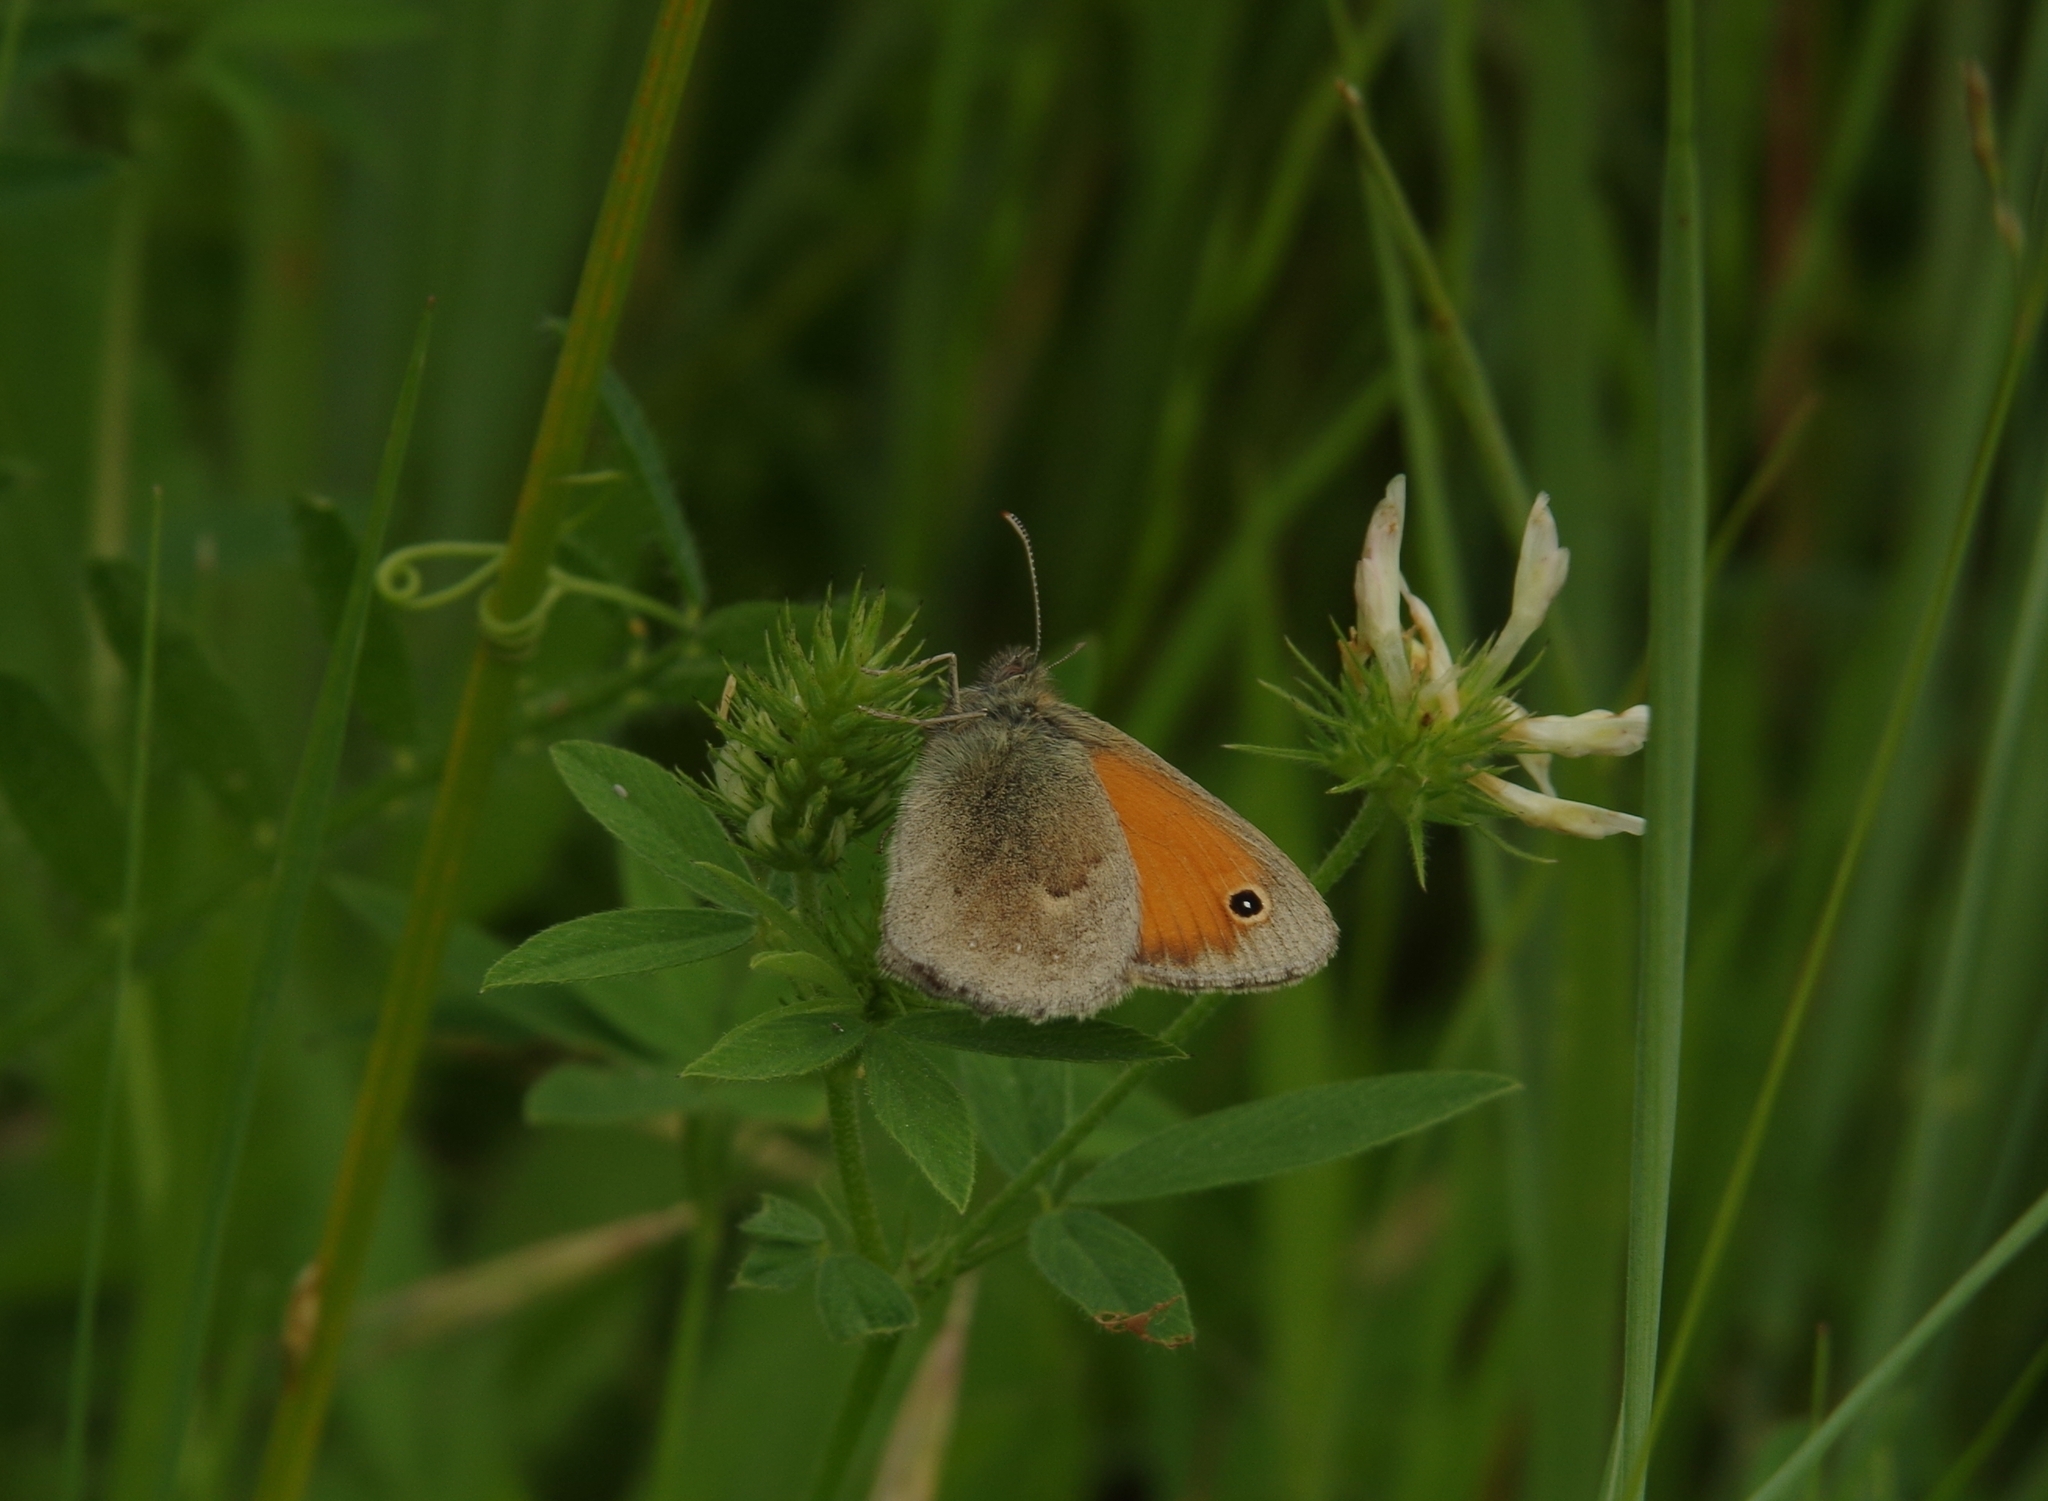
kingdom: Animalia
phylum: Arthropoda
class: Insecta
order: Lepidoptera
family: Nymphalidae
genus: Coenonympha
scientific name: Coenonympha pamphilus
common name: Small heath
